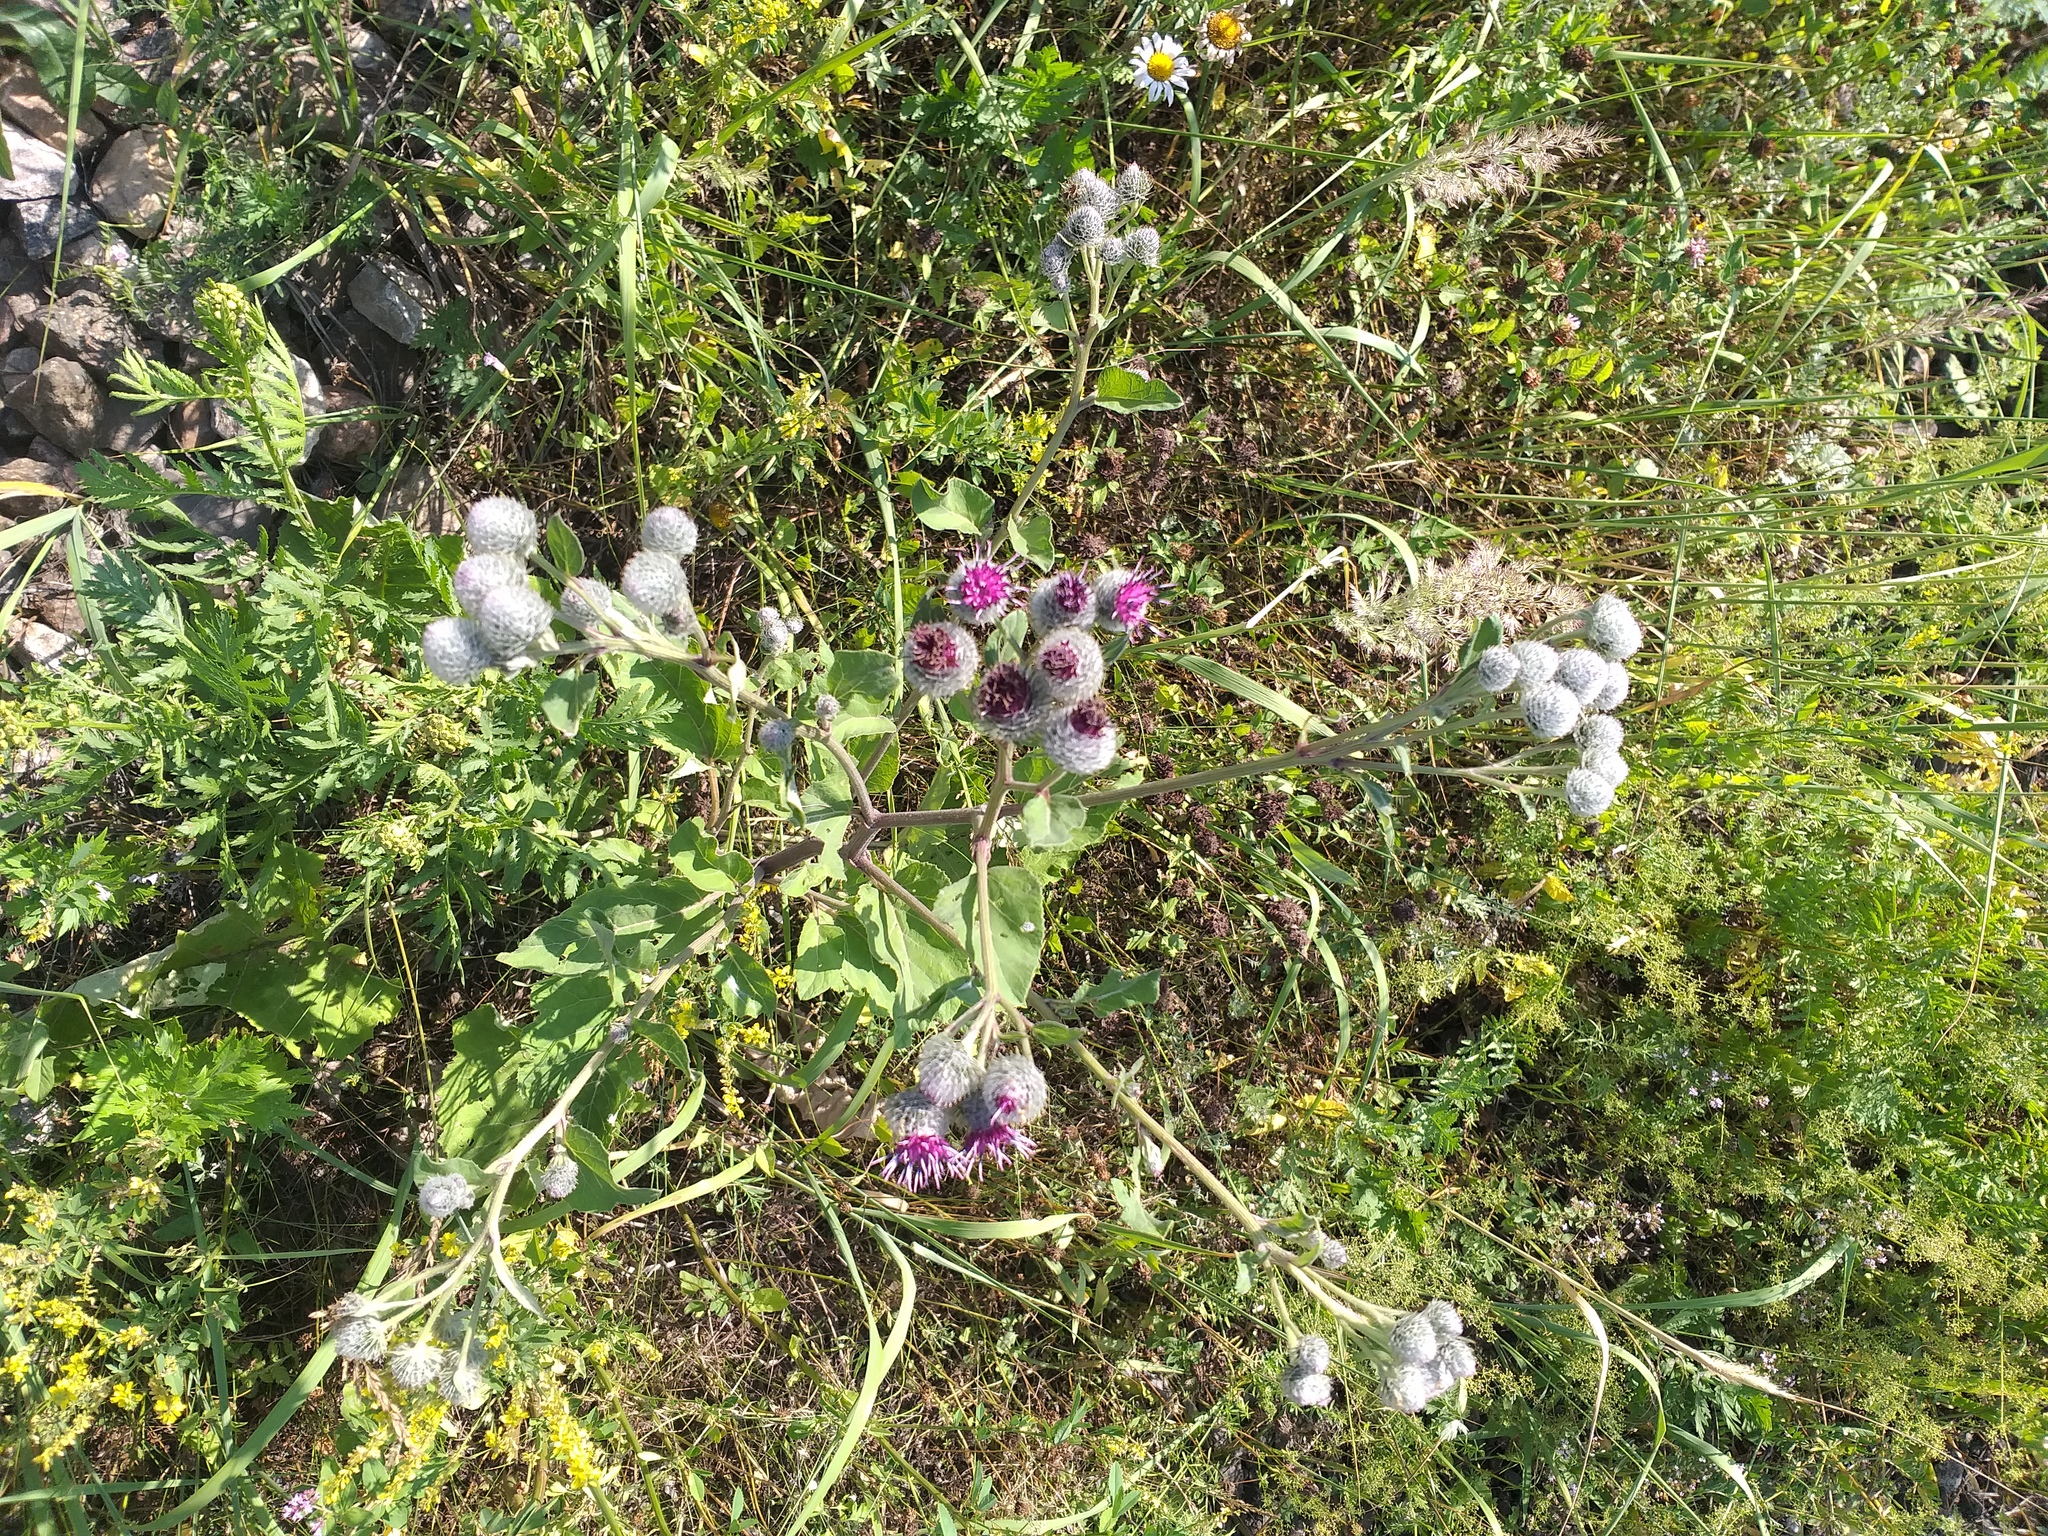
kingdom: Plantae
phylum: Tracheophyta
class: Magnoliopsida
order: Asterales
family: Asteraceae
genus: Arctium
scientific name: Arctium tomentosum
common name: Woolly burdock
